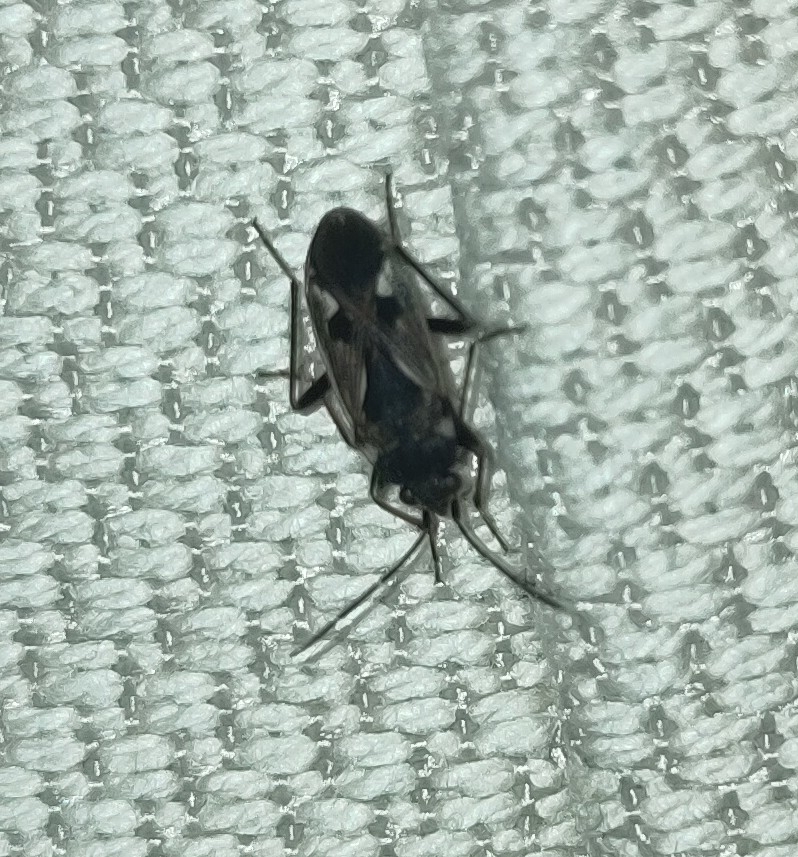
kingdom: Animalia
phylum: Arthropoda
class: Insecta
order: Hemiptera
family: Rhyparochromidae
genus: Rhyparochromus
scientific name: Rhyparochromus vulgaris
